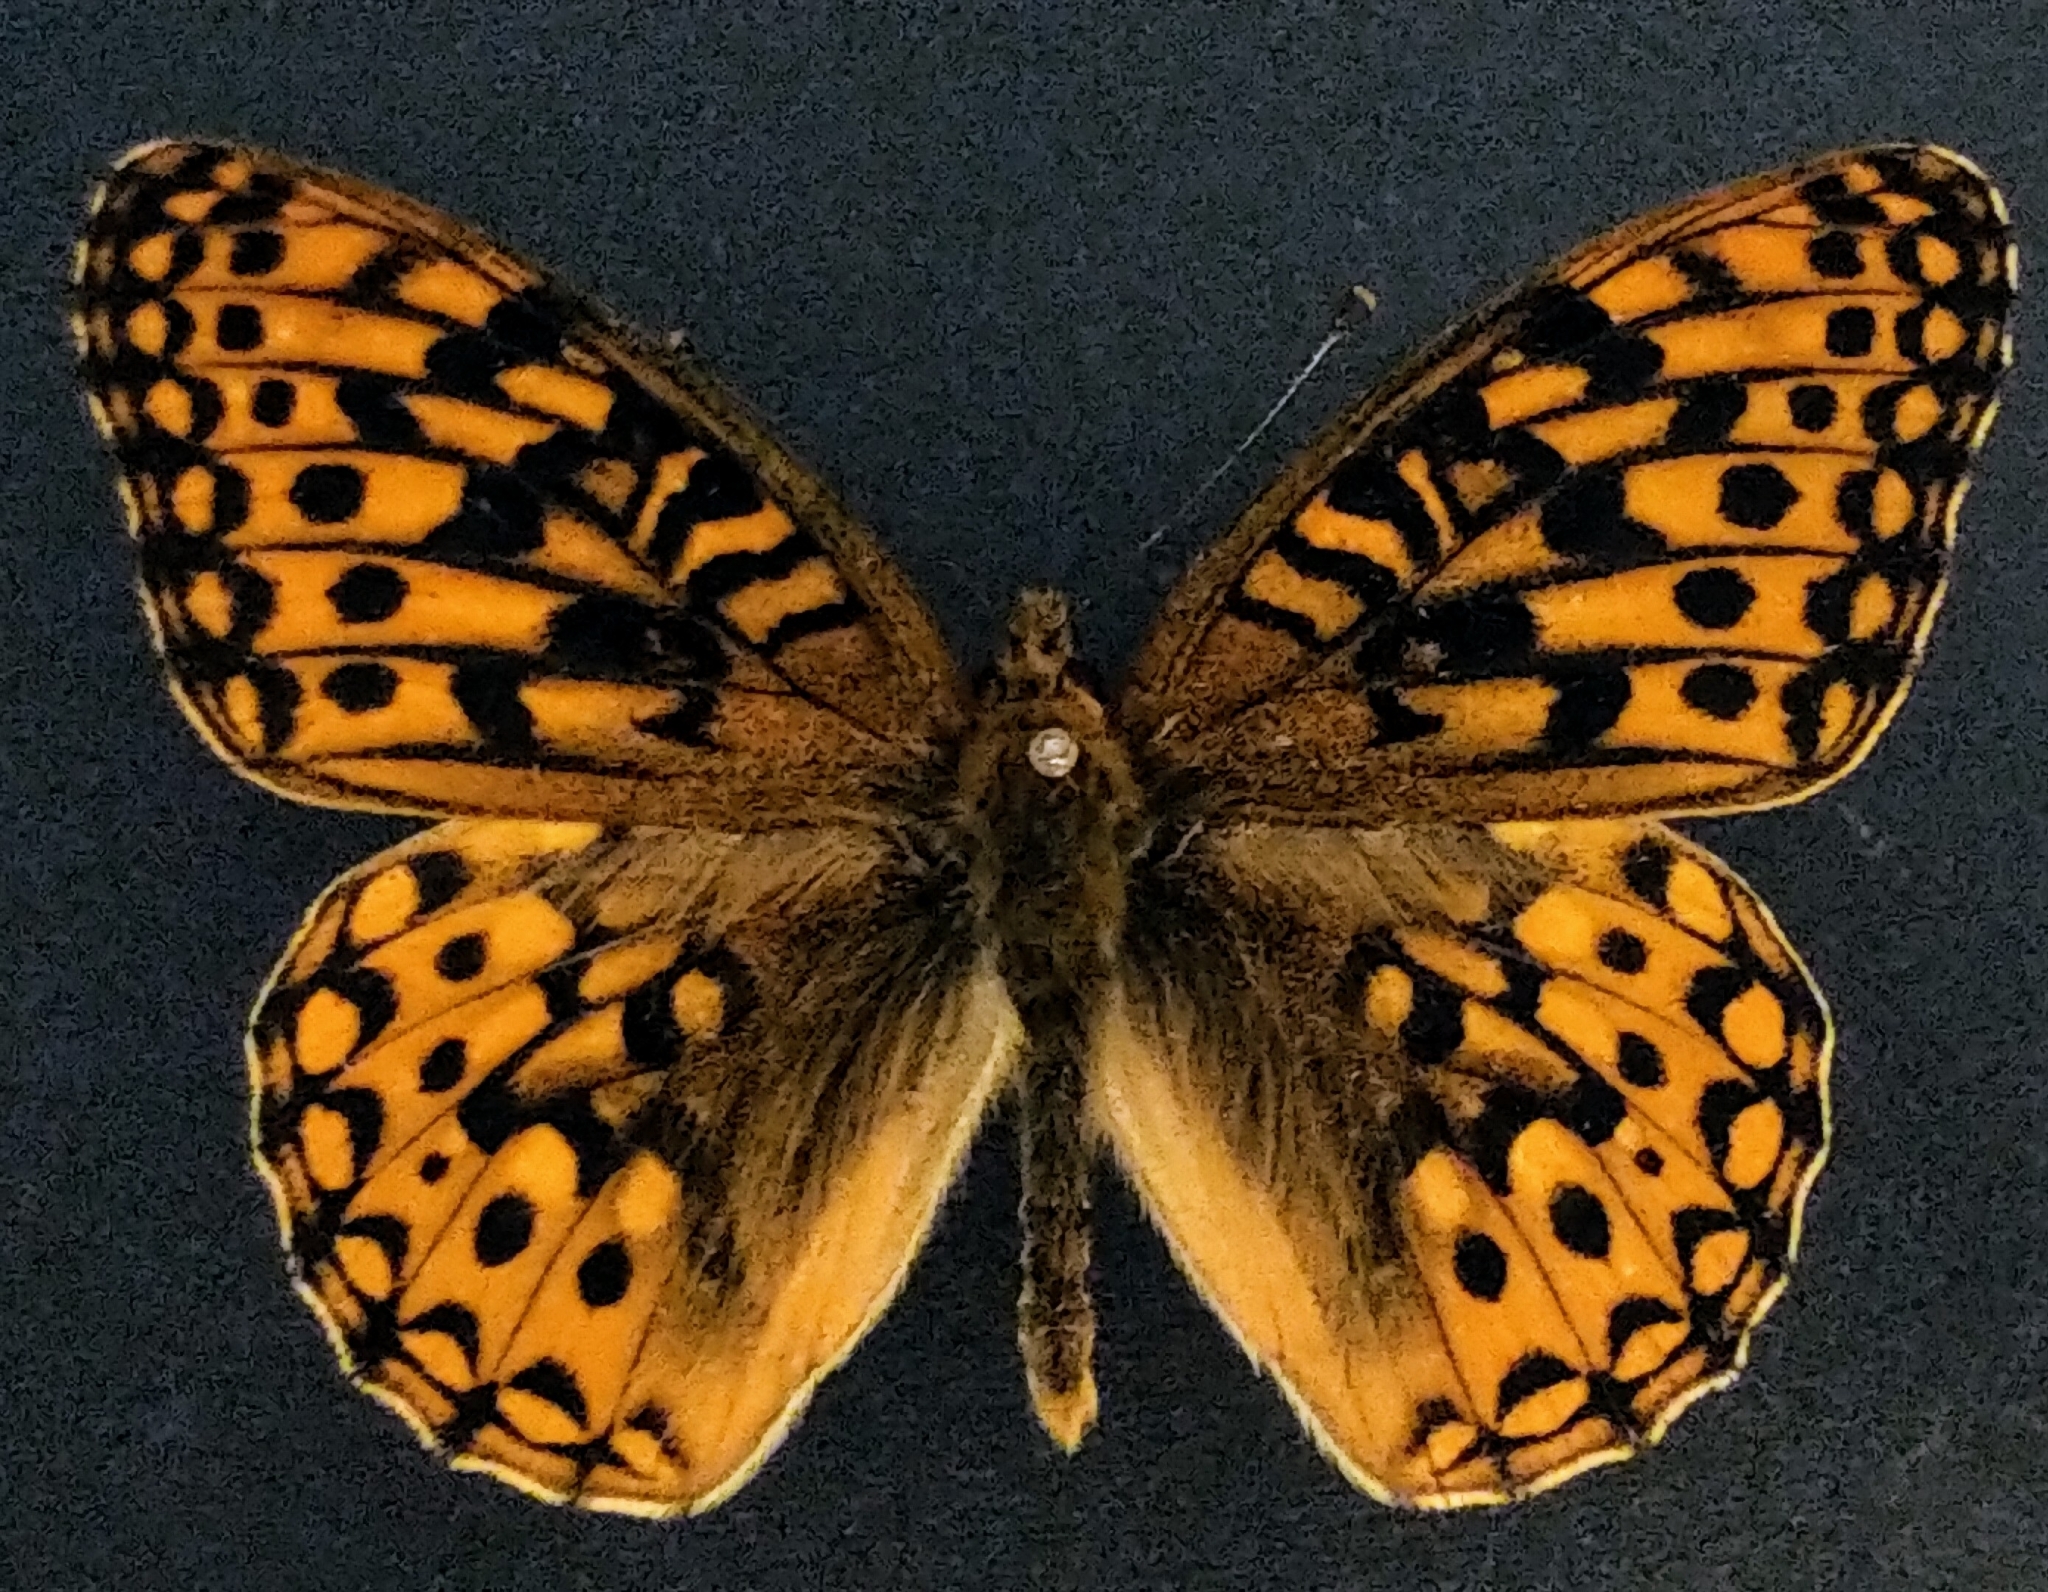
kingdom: Animalia
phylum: Arthropoda
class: Insecta
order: Lepidoptera
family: Nymphalidae
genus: Speyeria
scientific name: Speyeria zerene
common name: Zerene fritillary
